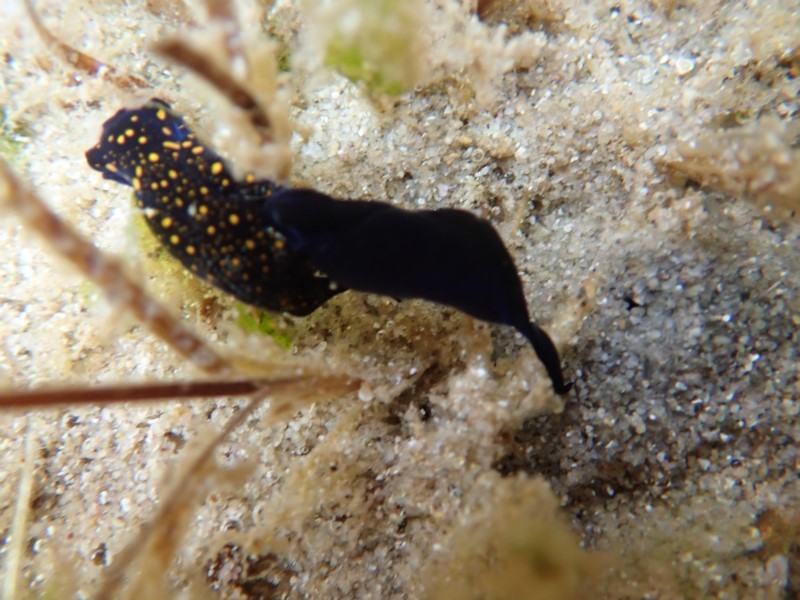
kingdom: Animalia
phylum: Mollusca
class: Gastropoda
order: Cephalaspidea
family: Aglajidae
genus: Mariaglaja
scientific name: Mariaglaja tsurugensis
